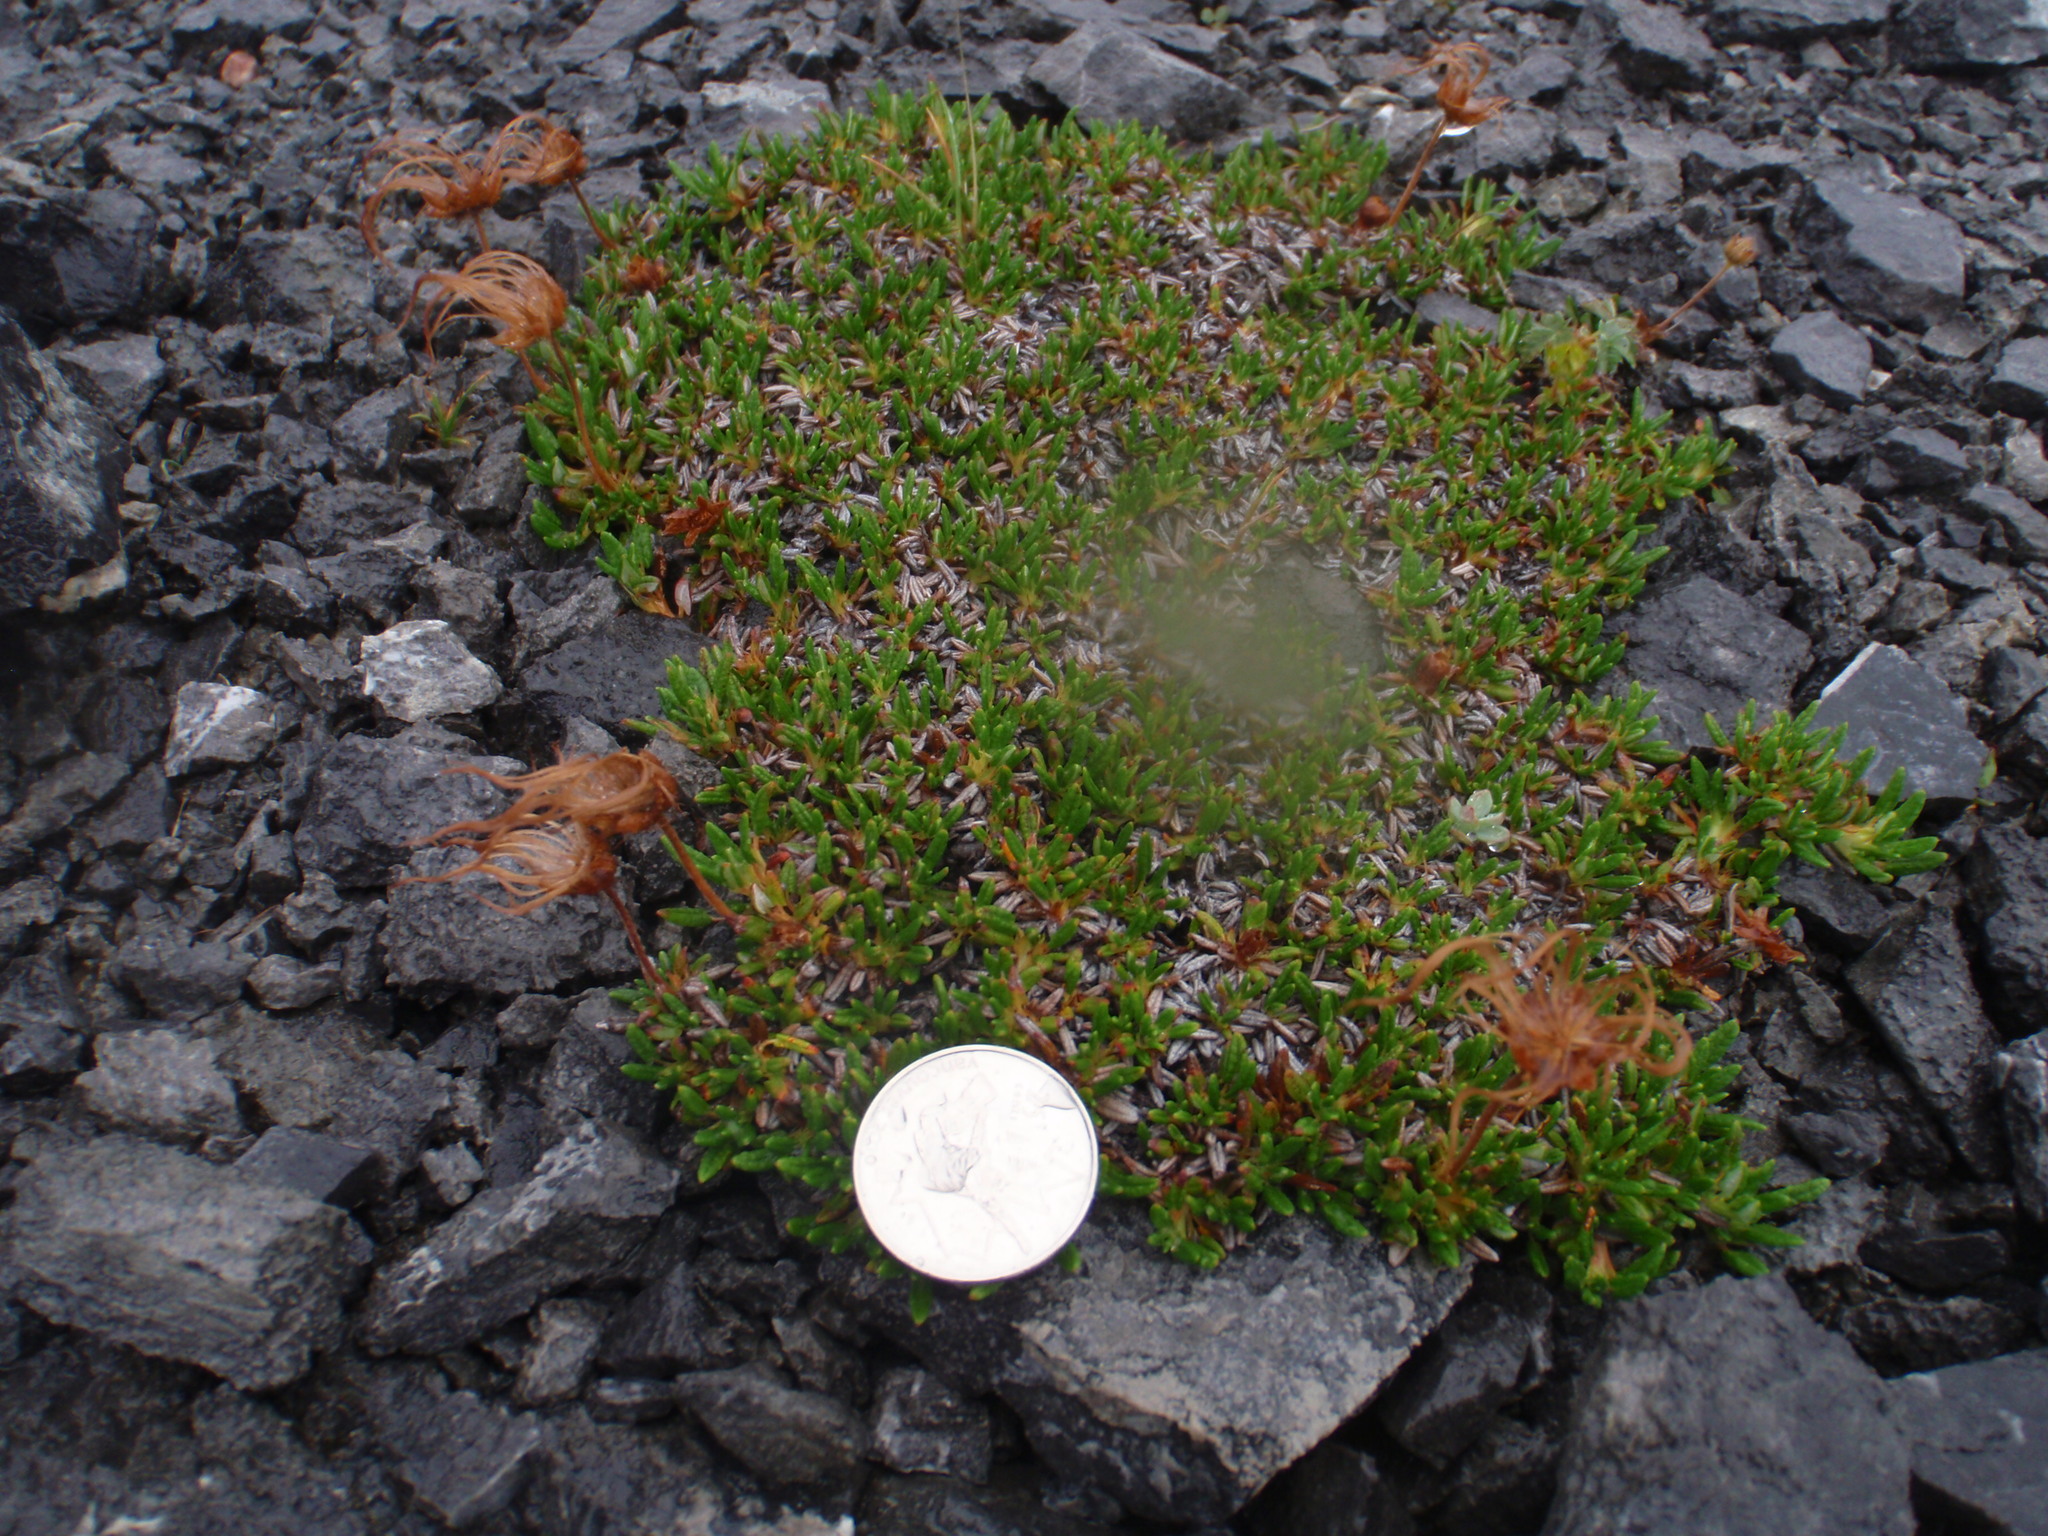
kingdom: Plantae
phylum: Tracheophyta
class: Magnoliopsida
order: Rosales
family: Rosaceae
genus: Dryas
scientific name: Dryas integrifolia
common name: Entire-leaved mountain avens
